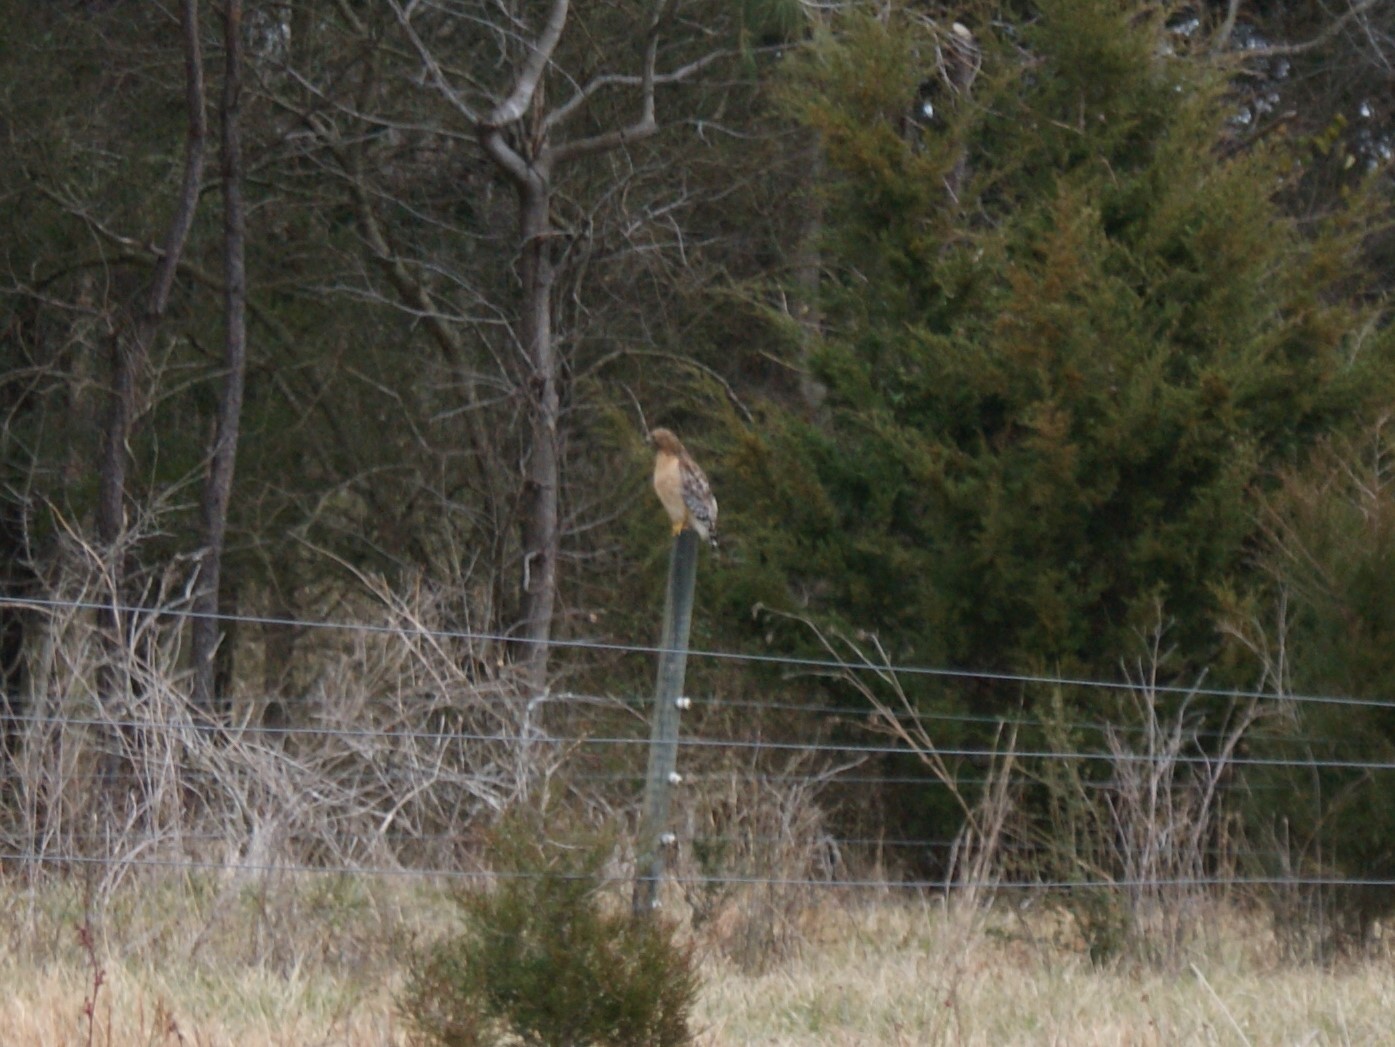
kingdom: Animalia
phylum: Chordata
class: Aves
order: Accipitriformes
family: Accipitridae
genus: Buteo
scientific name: Buteo lineatus
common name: Red-shouldered hawk
